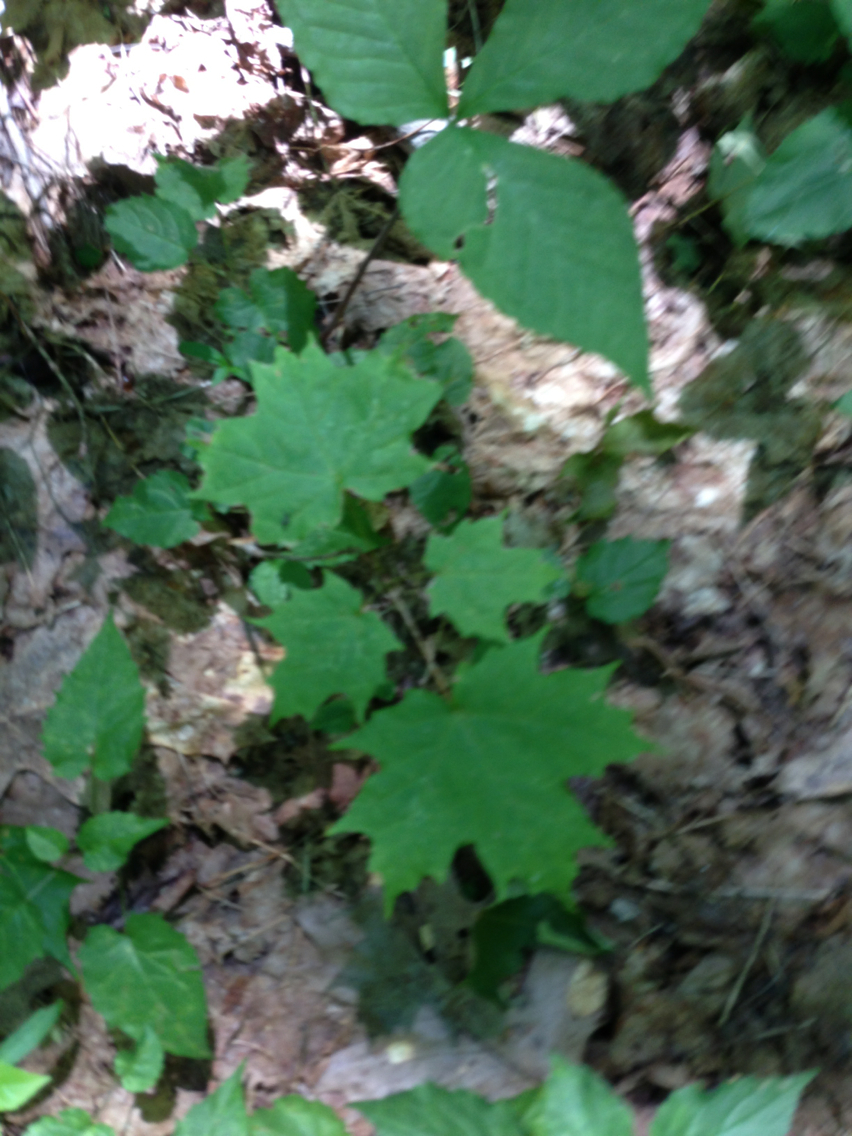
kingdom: Plantae
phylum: Tracheophyta
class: Magnoliopsida
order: Sapindales
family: Sapindaceae
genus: Acer
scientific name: Acer saccharum
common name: Sugar maple
